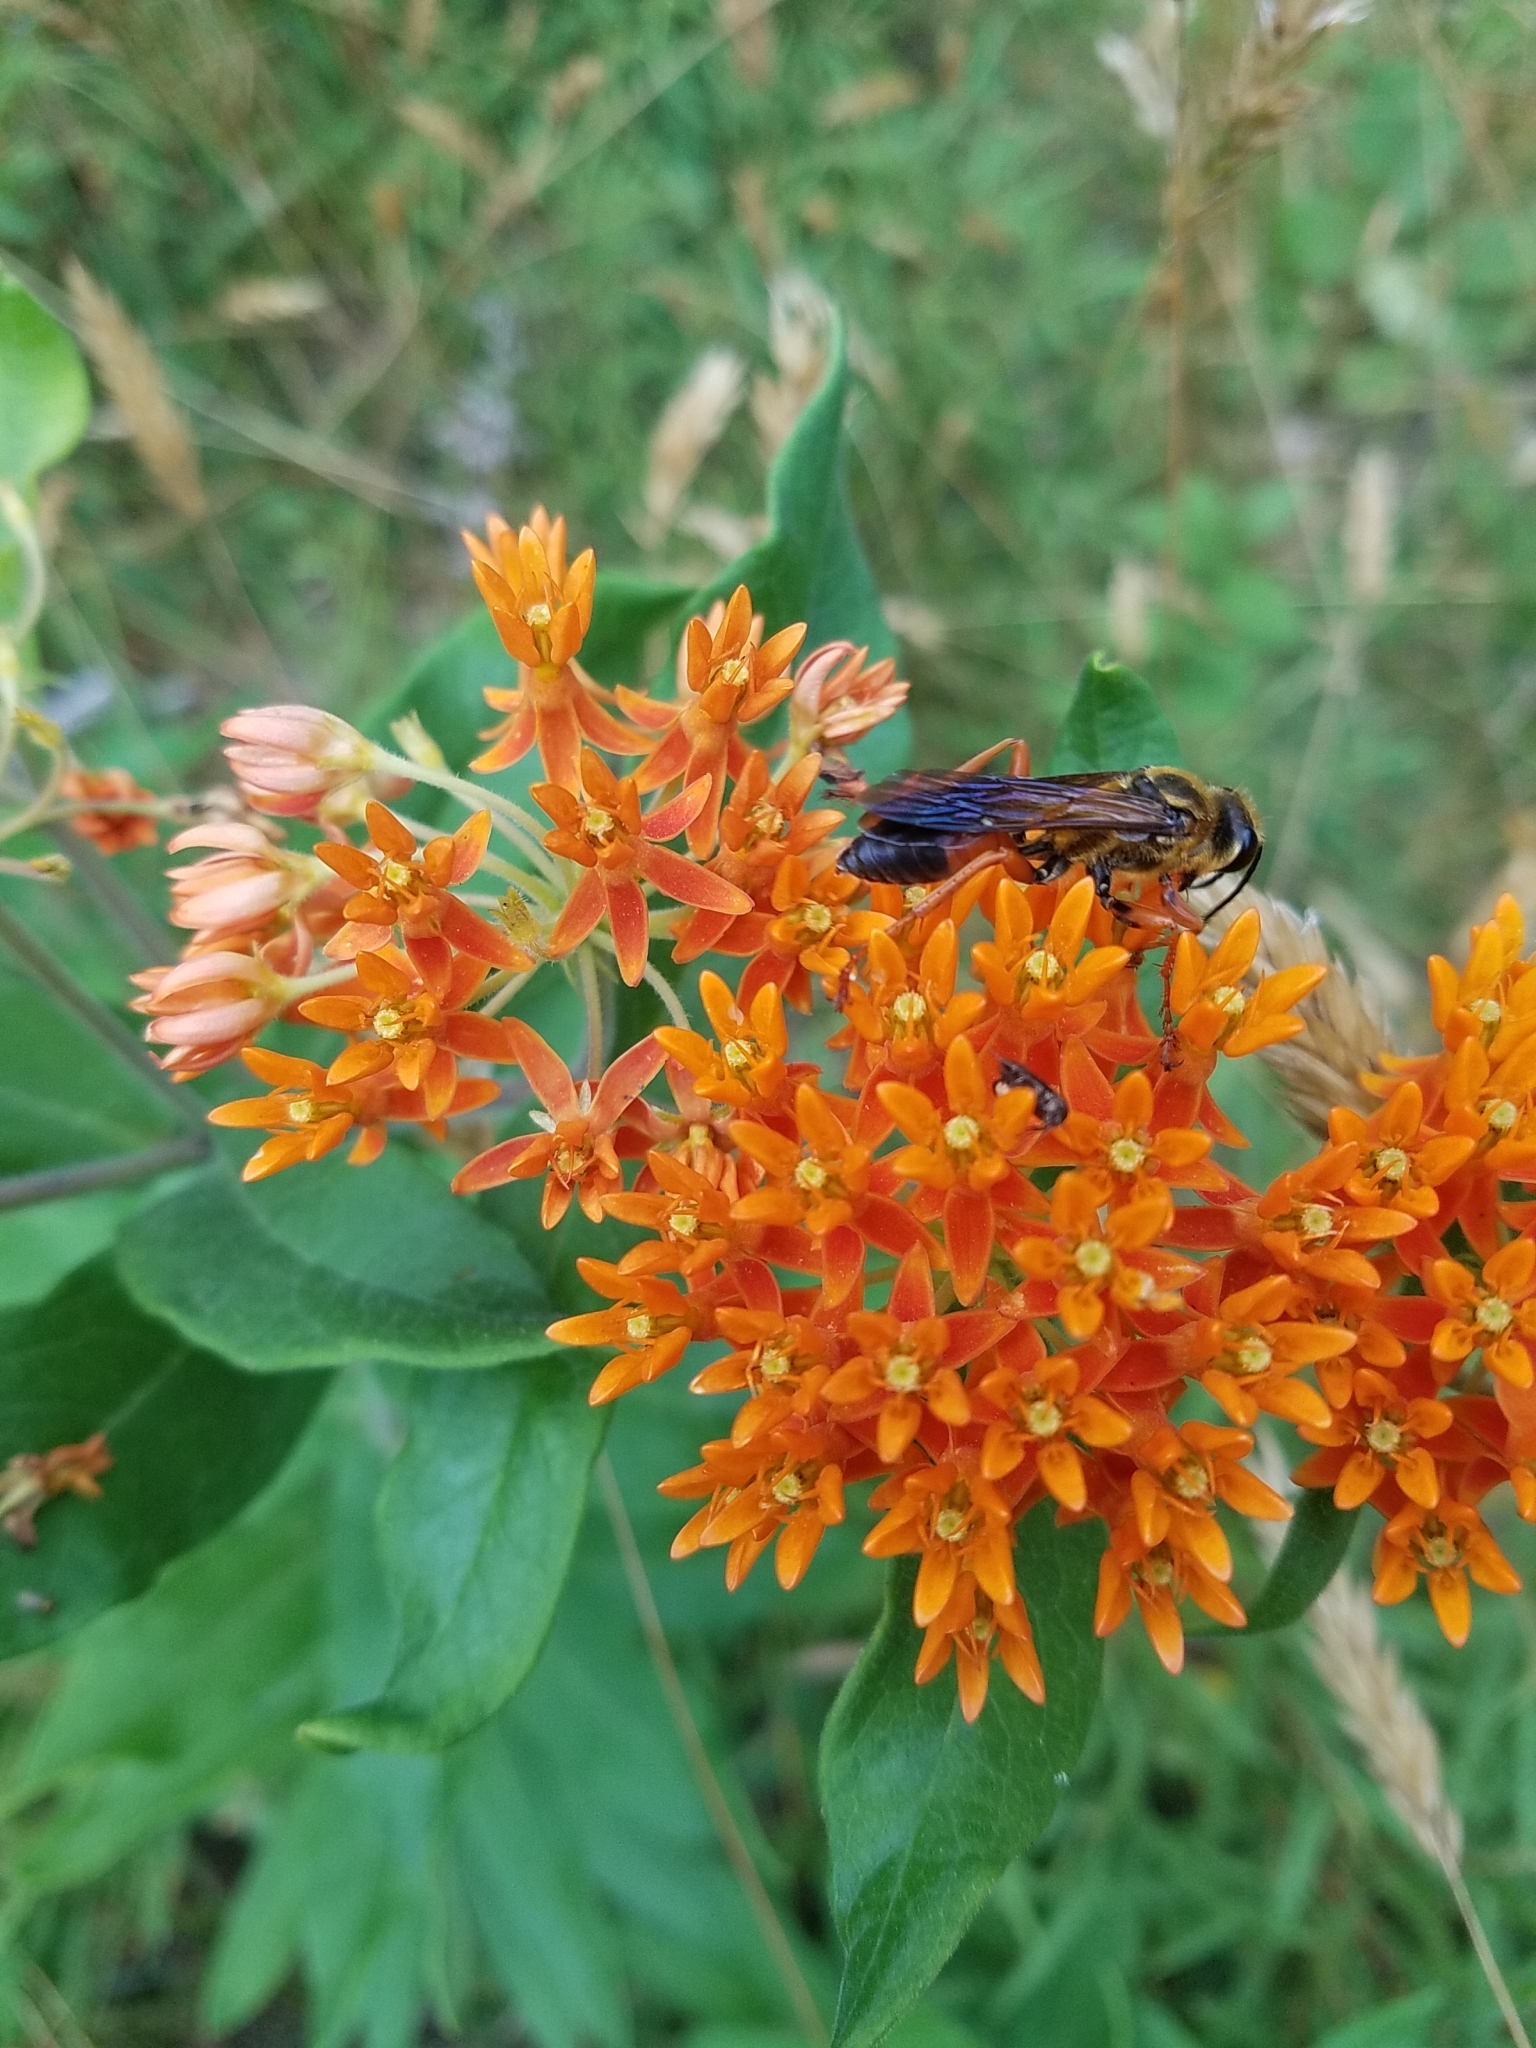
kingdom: Animalia
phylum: Arthropoda
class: Insecta
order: Hymenoptera
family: Sphecidae
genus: Sphex
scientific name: Sphex ichneumoneus
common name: Great golden digger wasp
